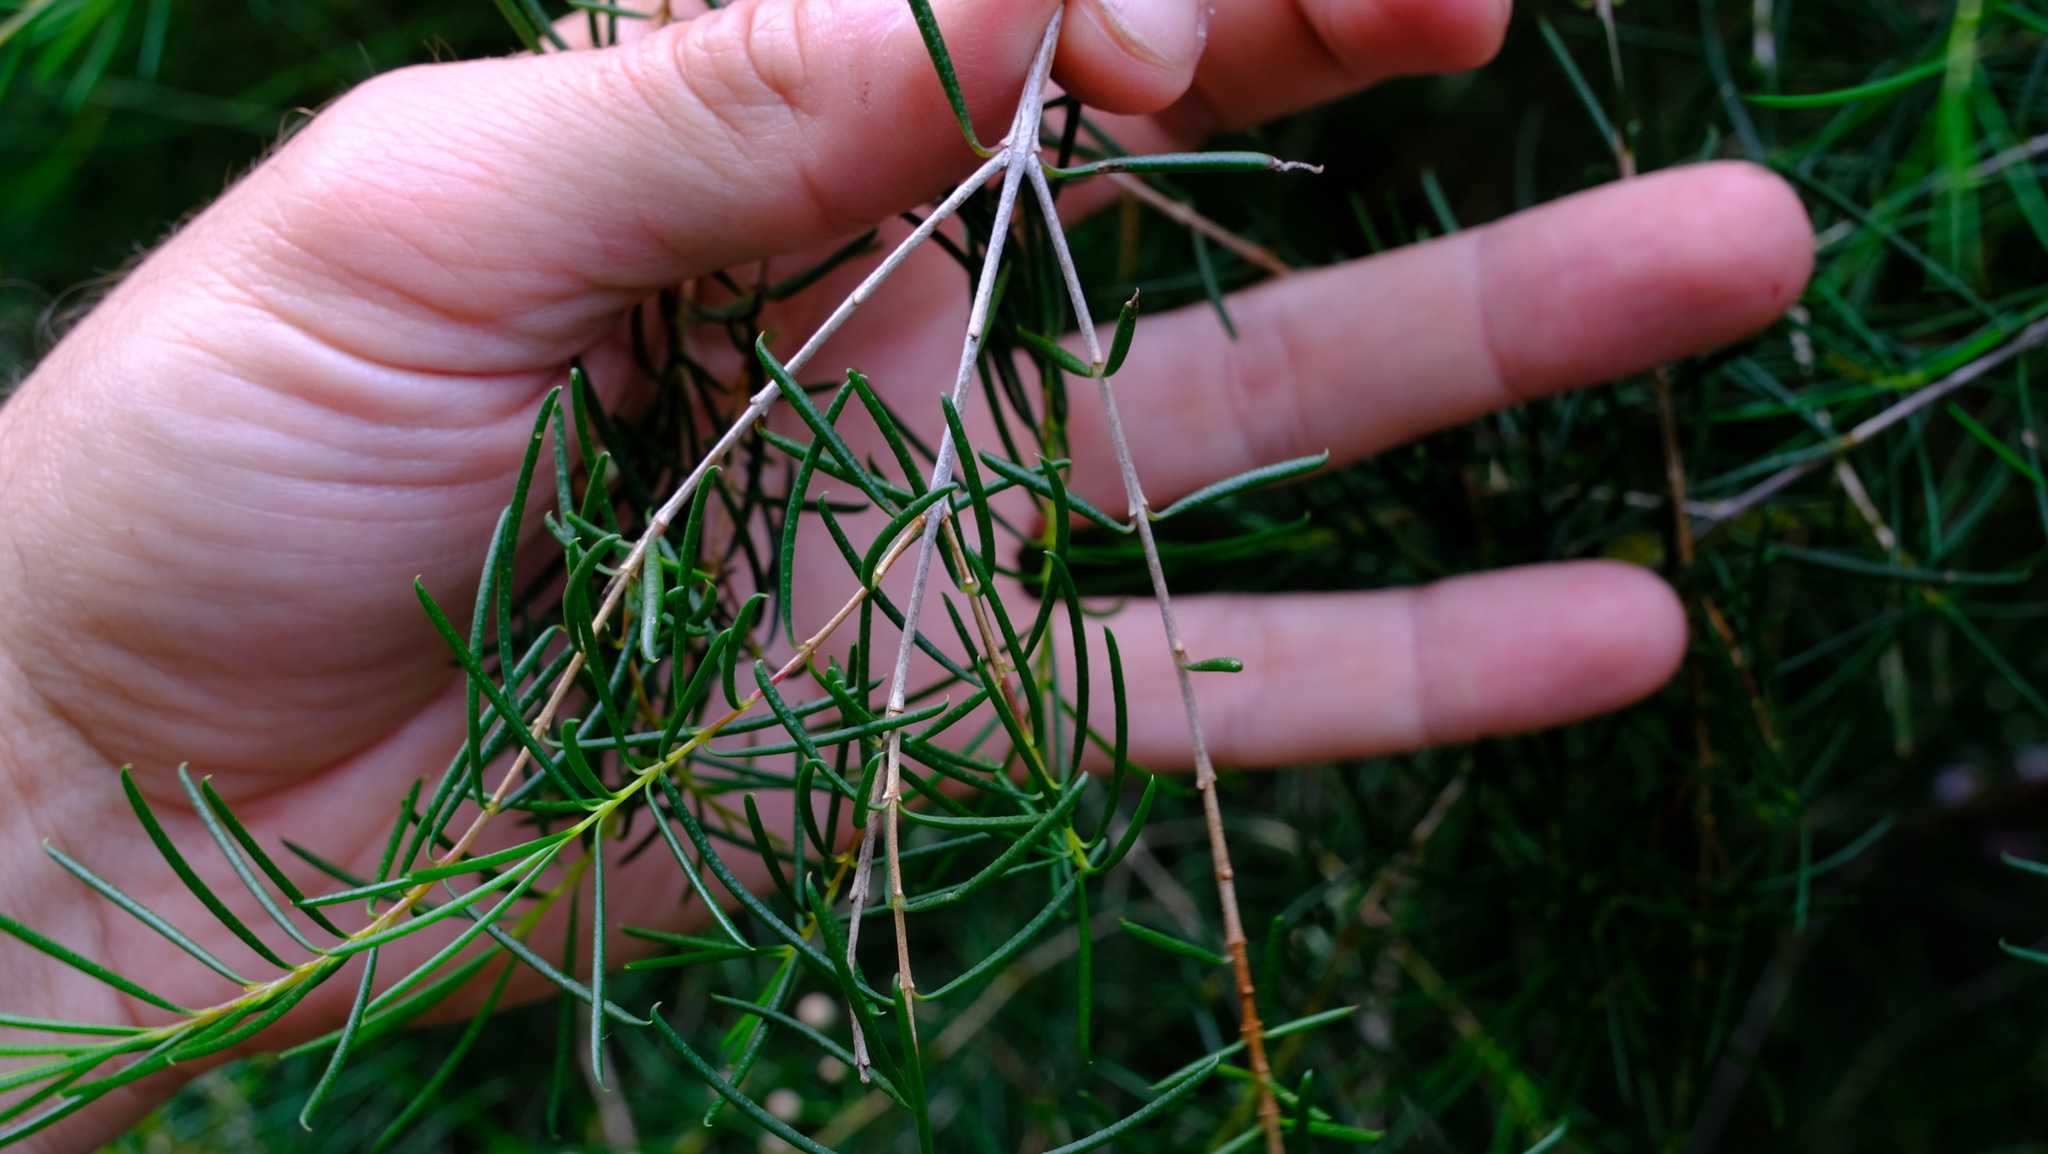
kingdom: Plantae
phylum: Tracheophyta
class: Magnoliopsida
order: Myrtales
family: Myrtaceae
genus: Chamelaucium
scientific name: Chamelaucium uncinatum
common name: Geraldton wax
